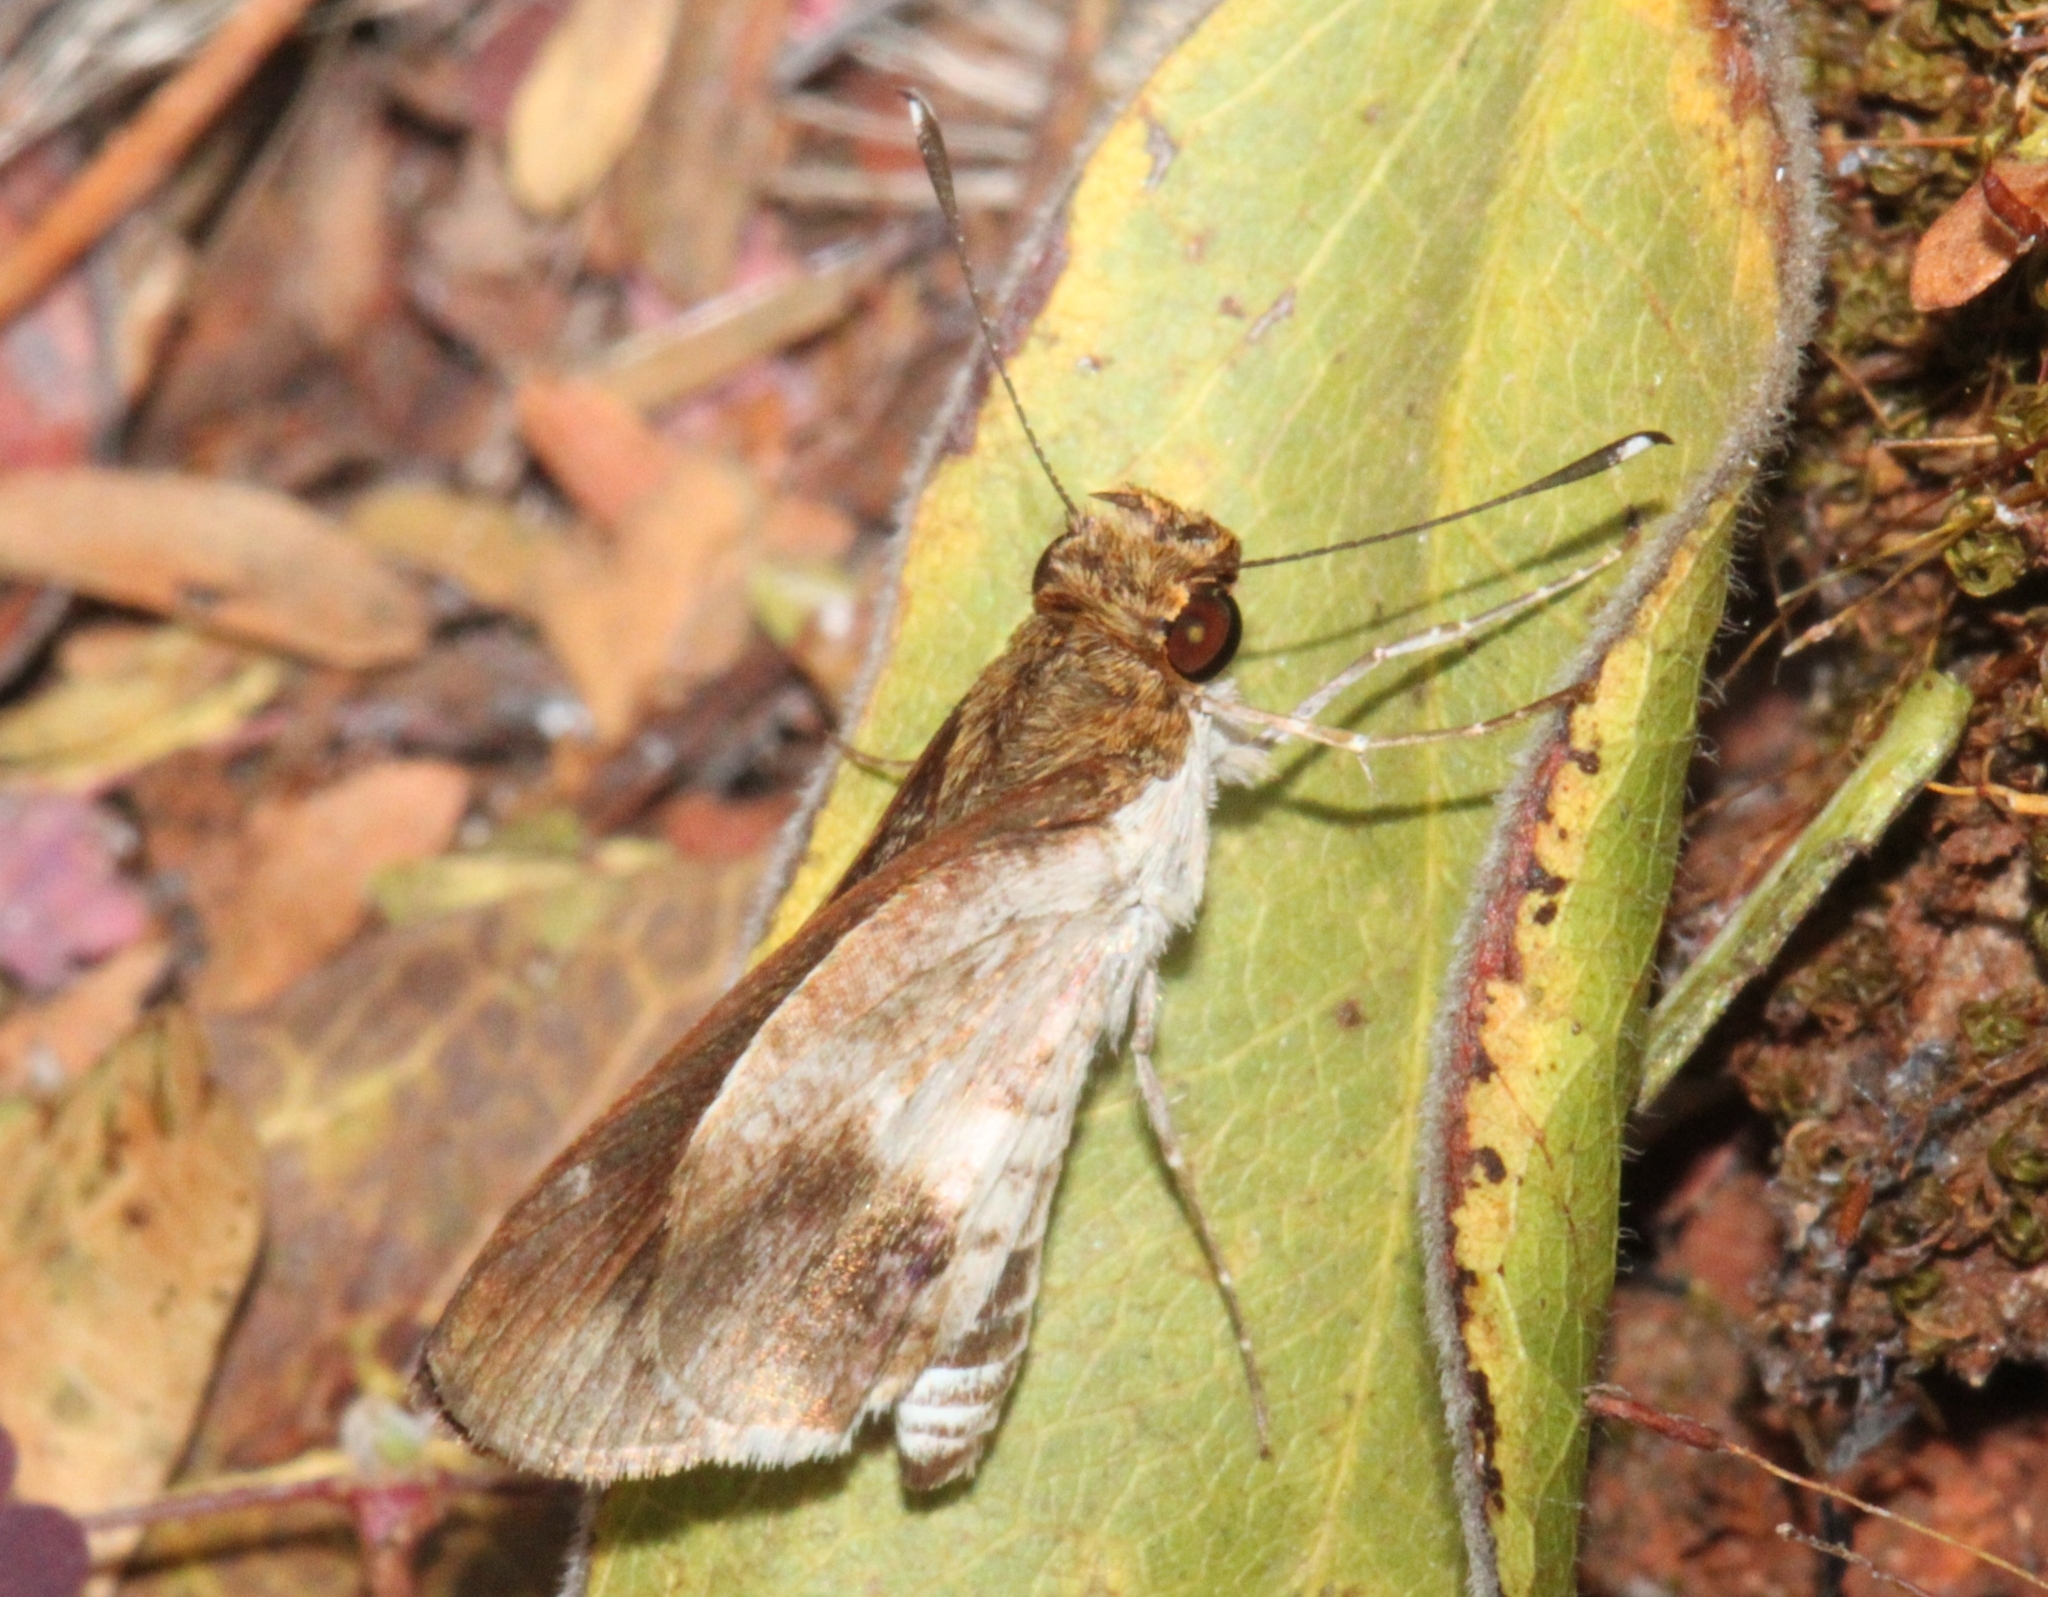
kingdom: Animalia
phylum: Arthropoda
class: Insecta
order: Lepidoptera
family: Hesperiidae
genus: Acleros
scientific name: Acleros mackenii
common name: Shade dart
